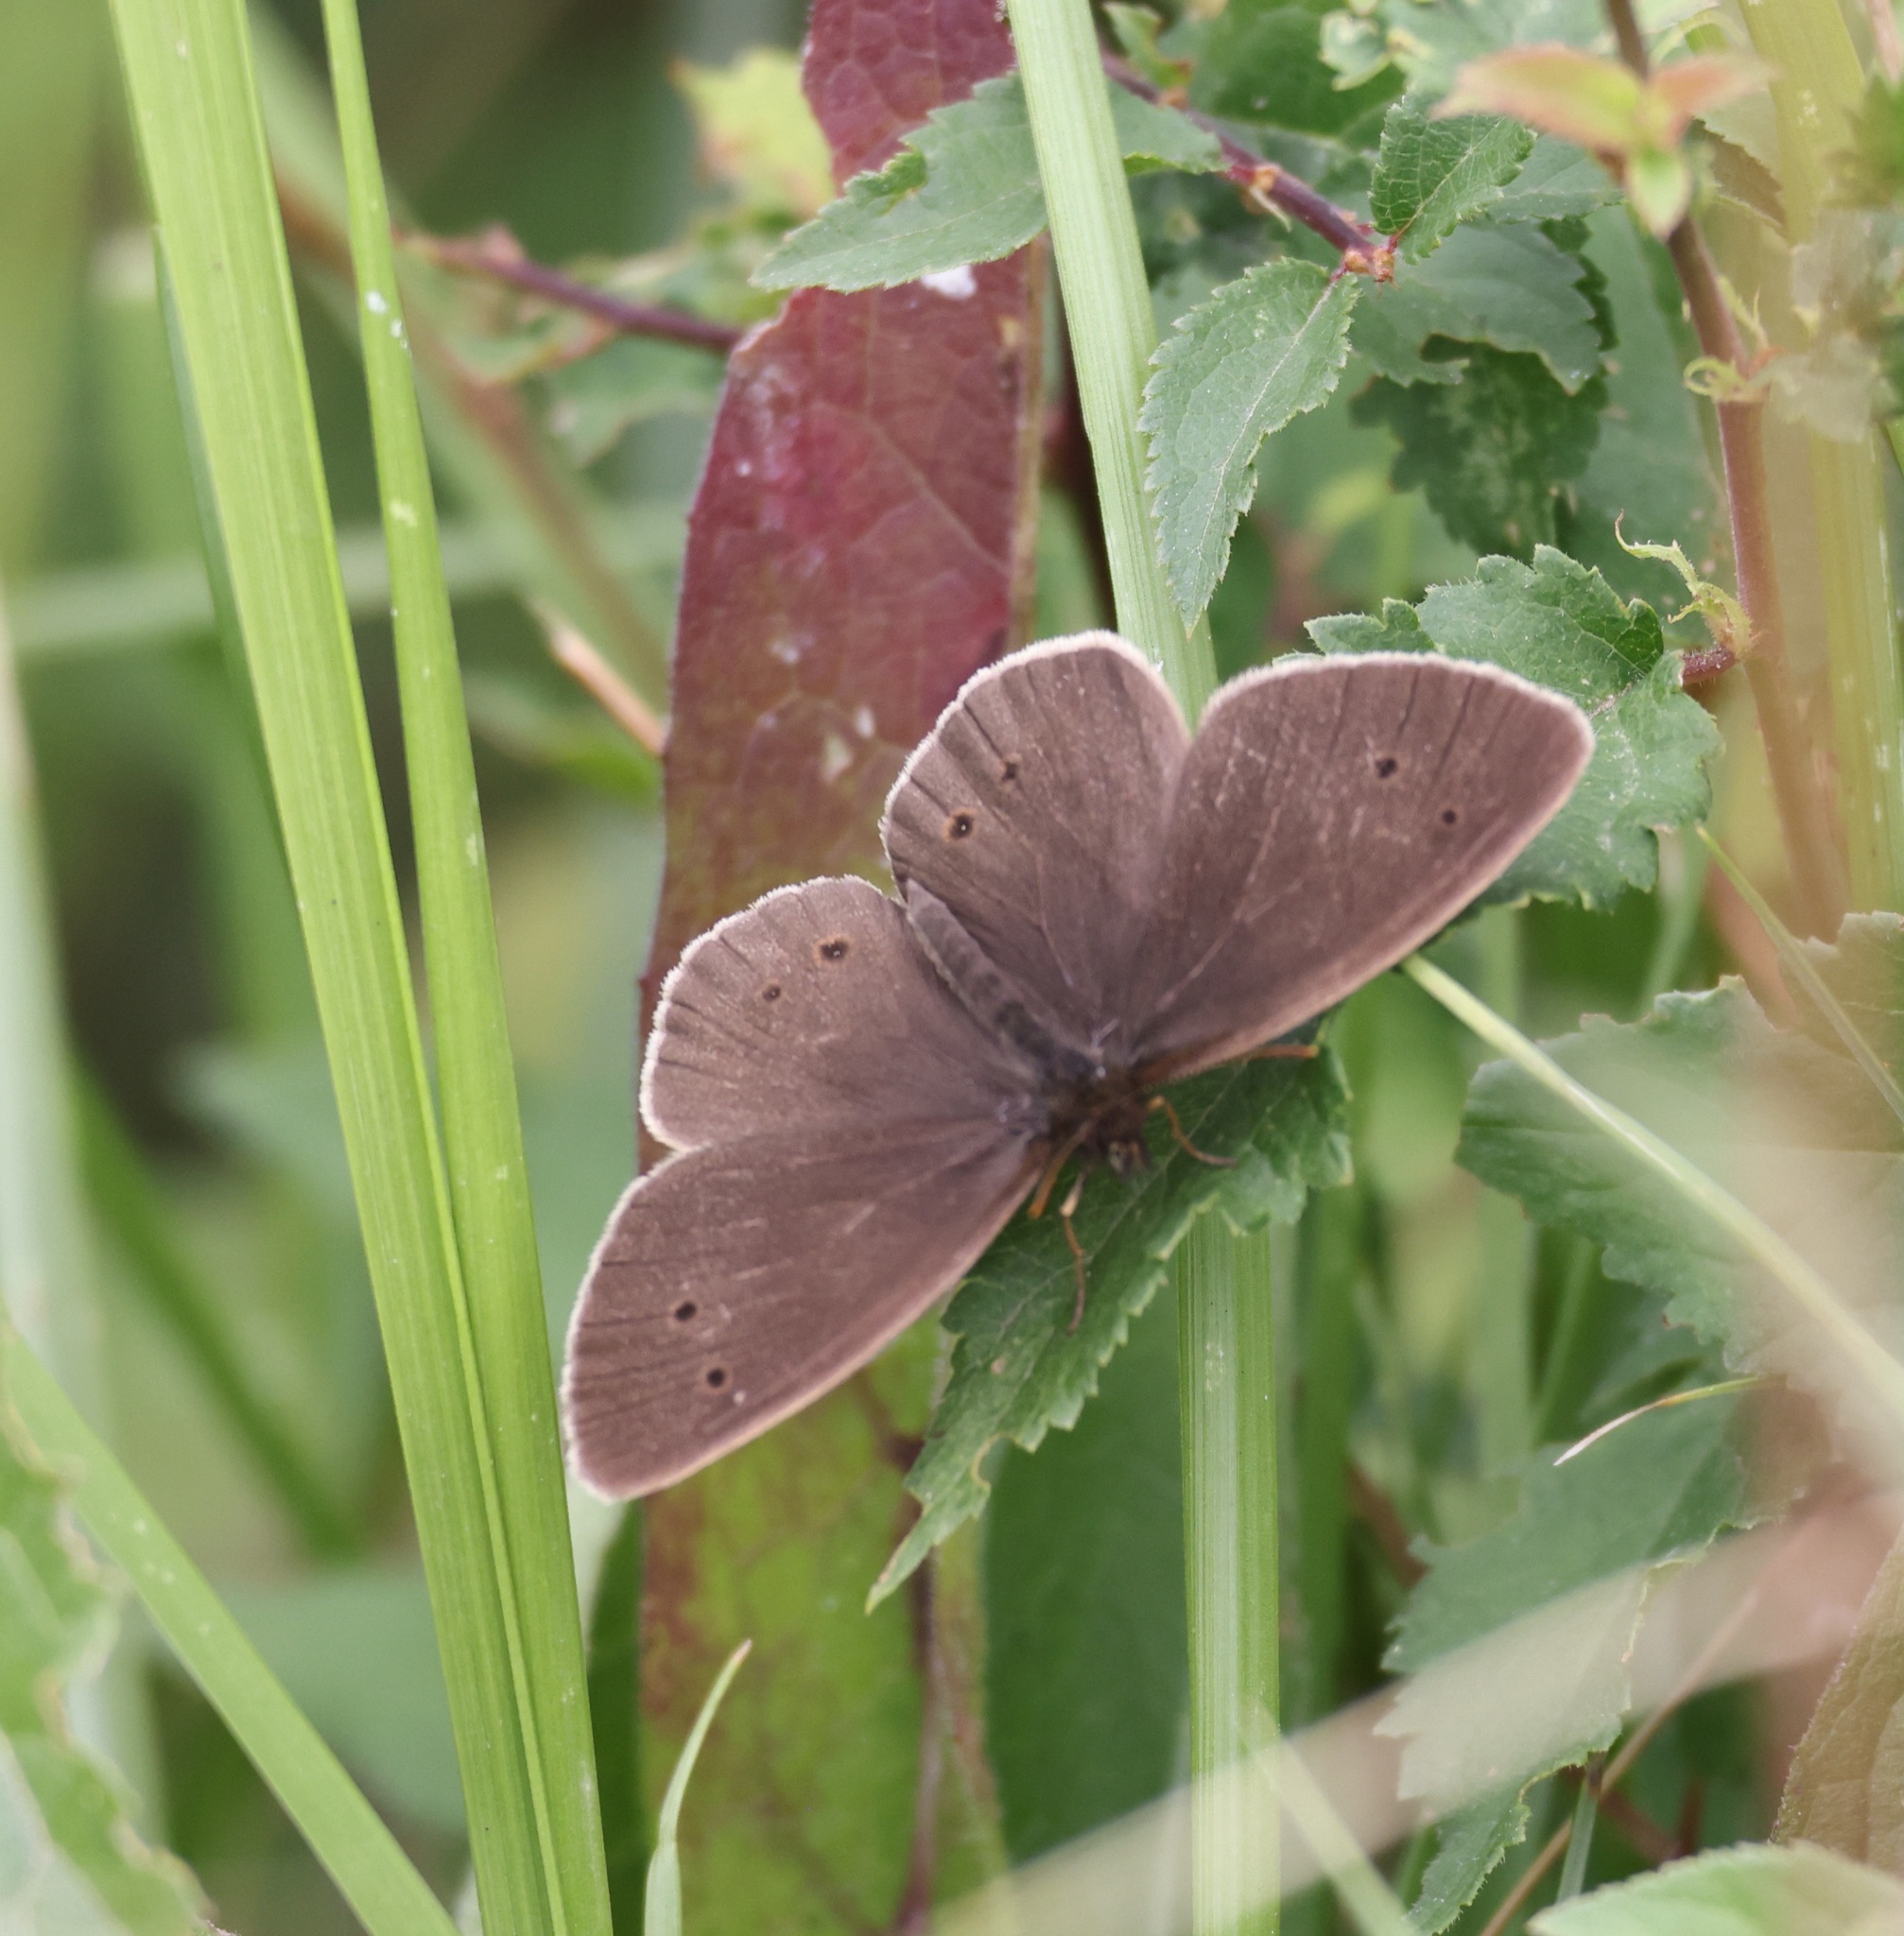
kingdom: Animalia
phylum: Arthropoda
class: Insecta
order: Lepidoptera
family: Nymphalidae
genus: Aphantopus
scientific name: Aphantopus hyperantus
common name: Ringlet
